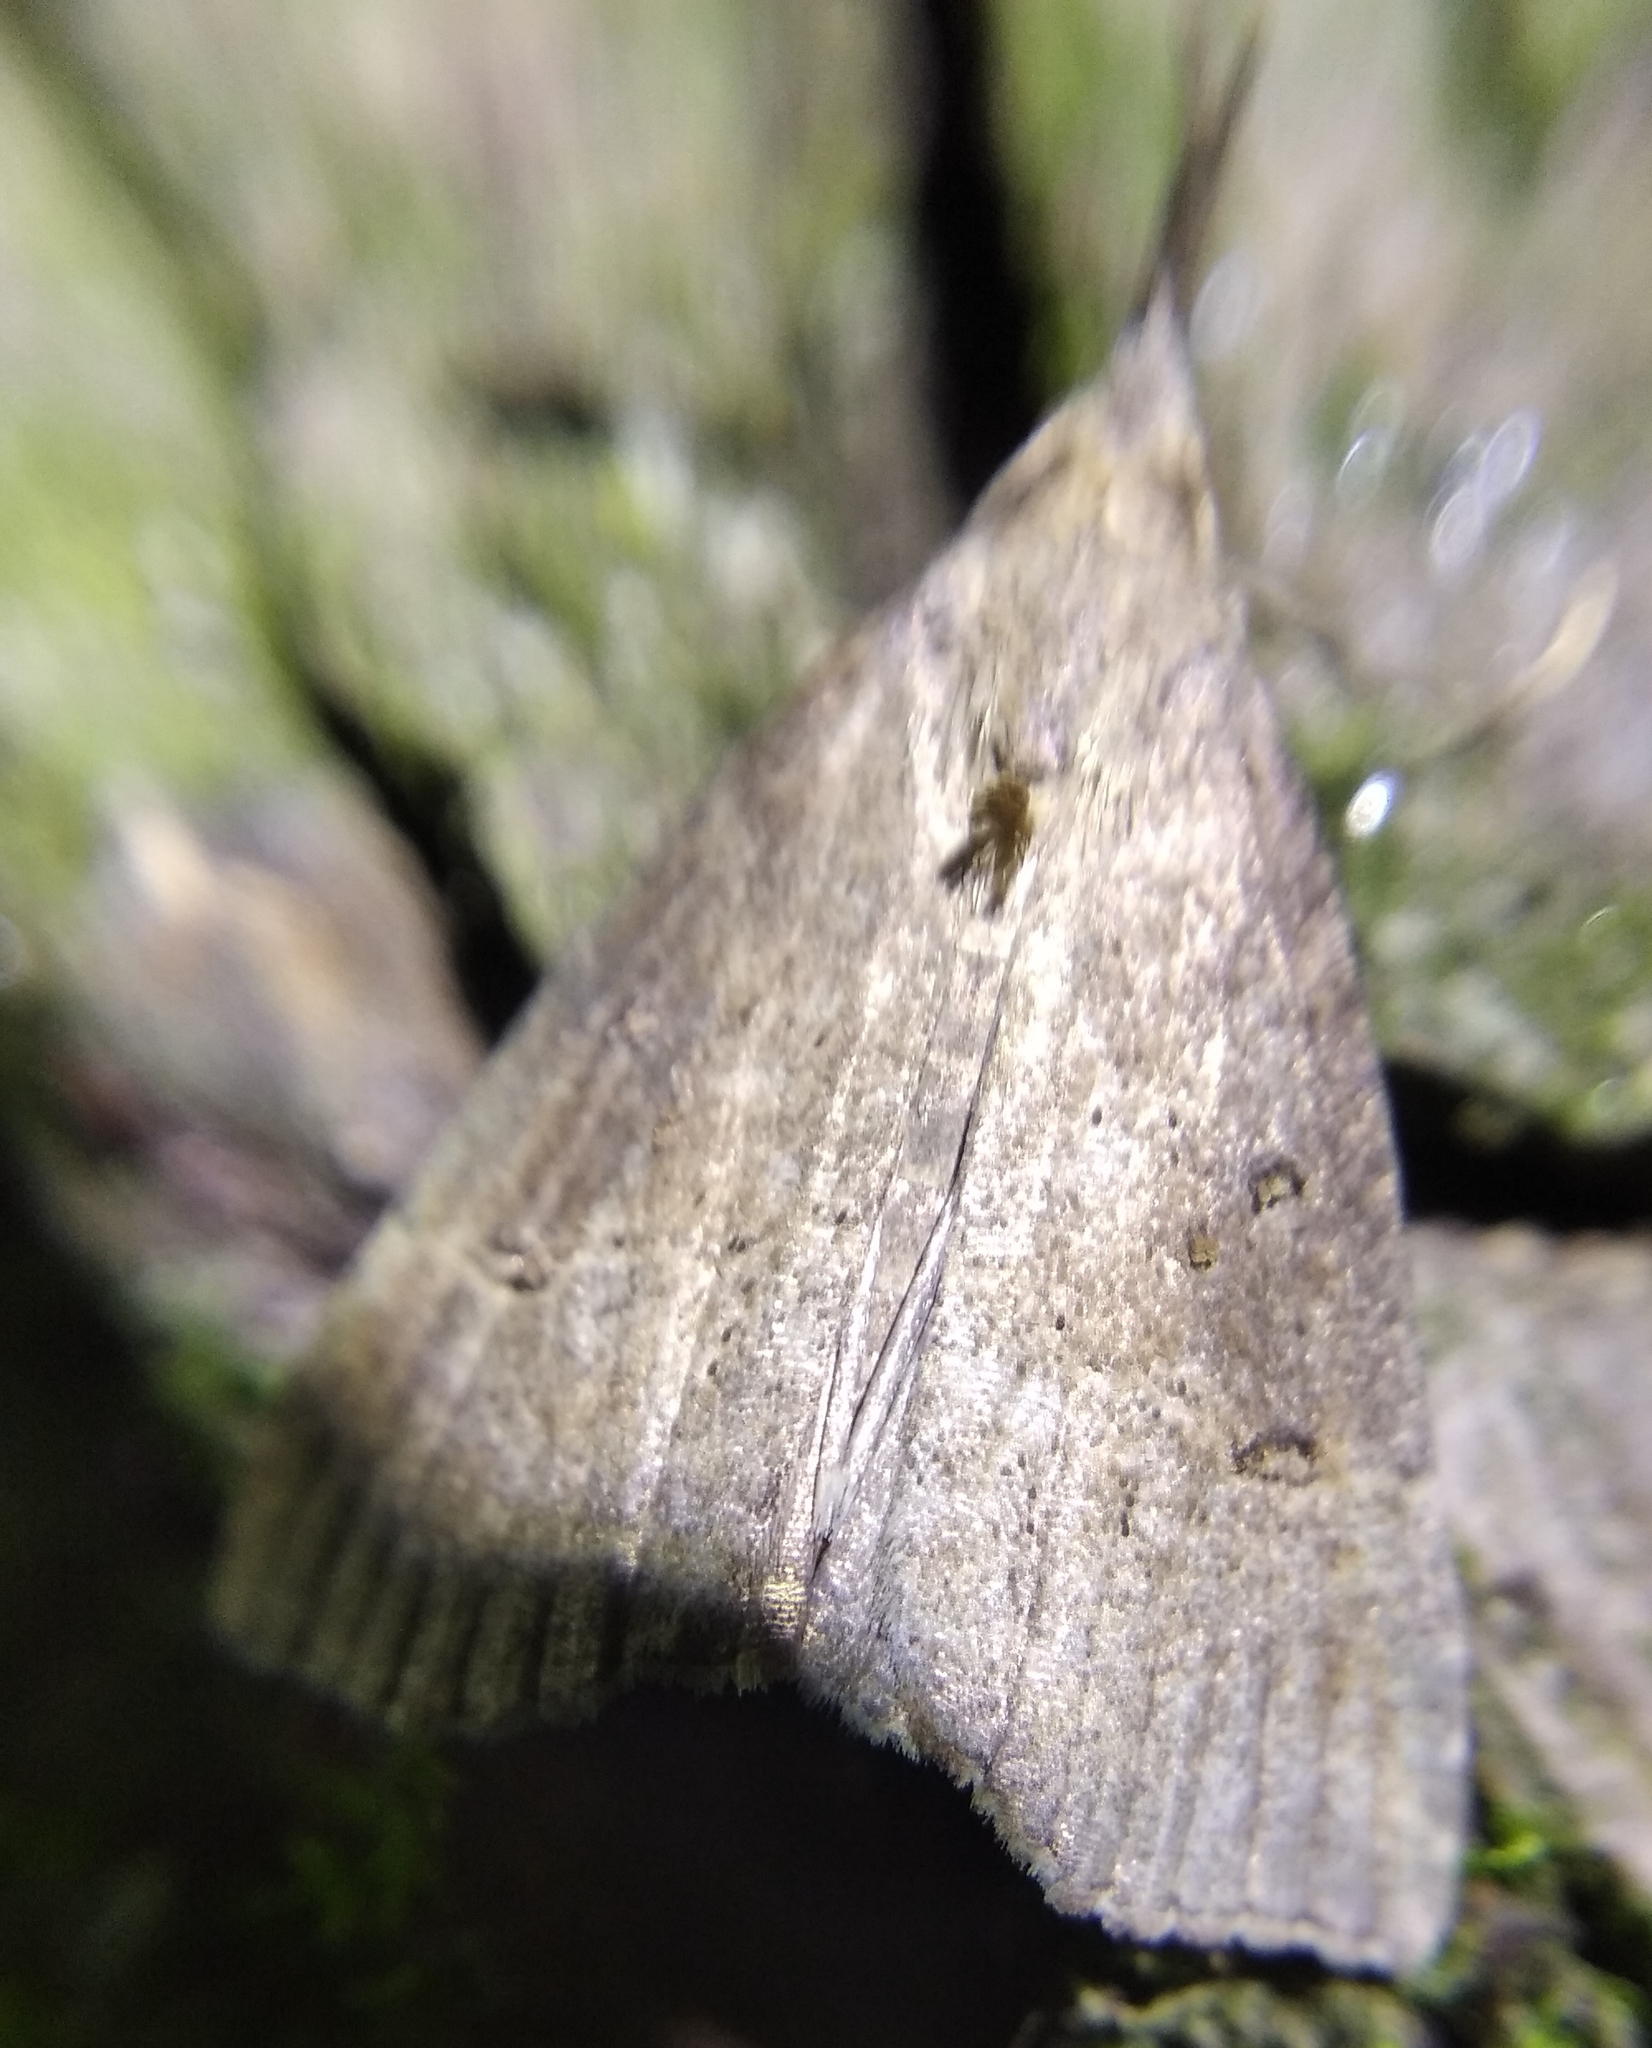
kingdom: Animalia
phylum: Arthropoda
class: Insecta
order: Lepidoptera
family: Erebidae
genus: Hypena
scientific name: Hypena rostralis
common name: Buttoned snout
